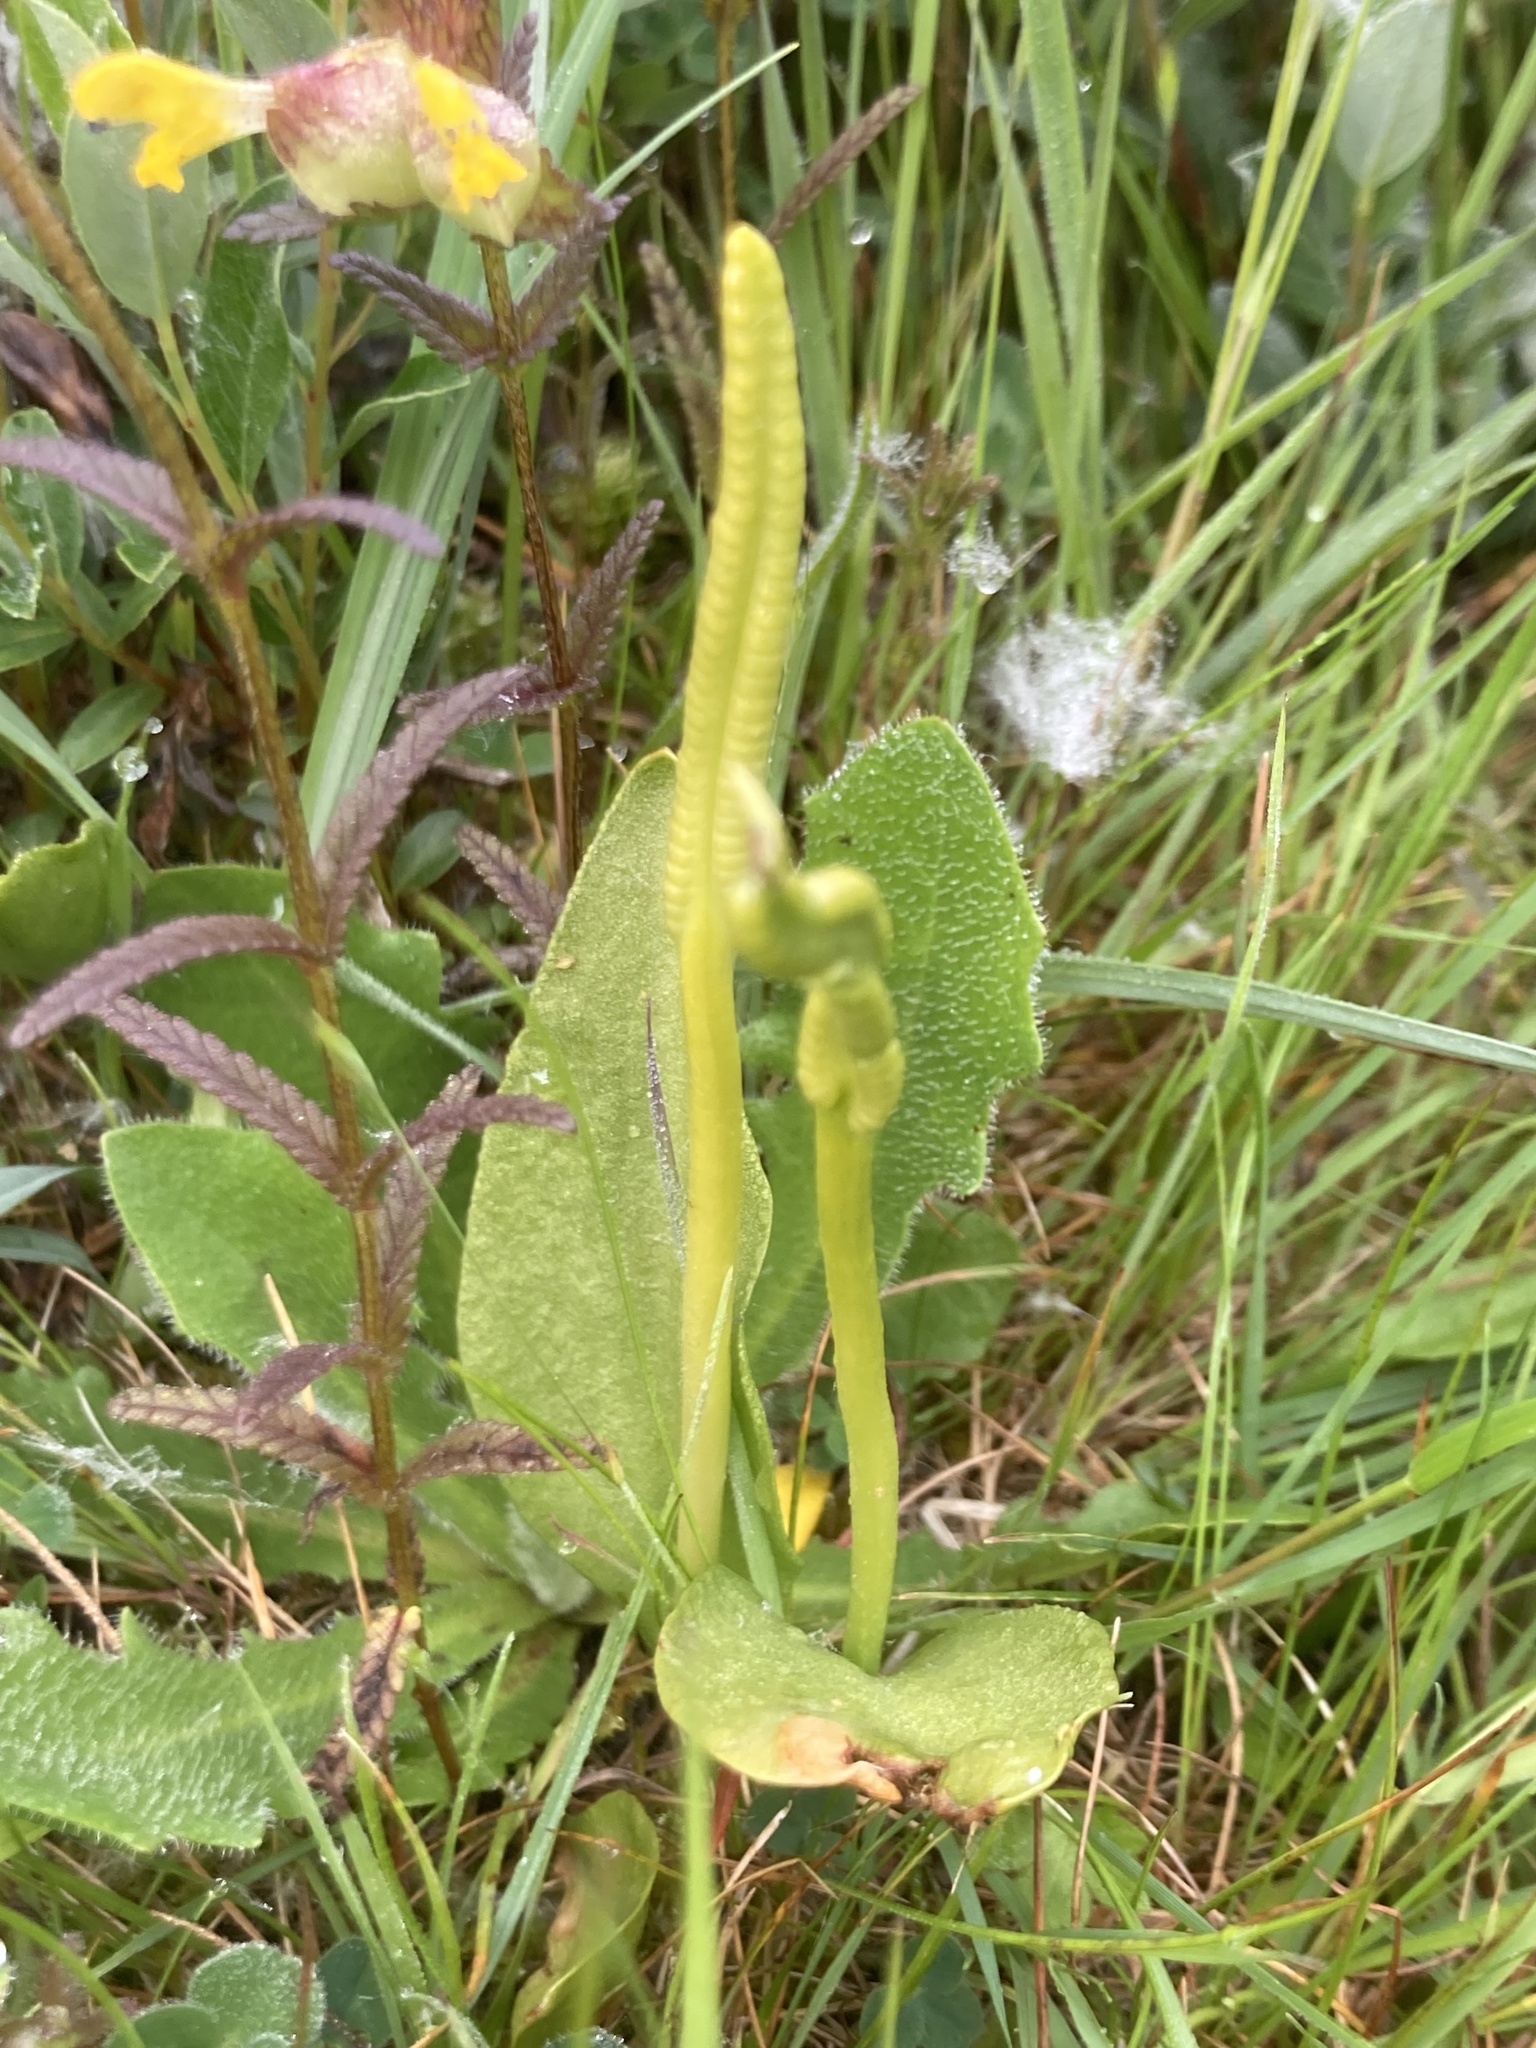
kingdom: Plantae
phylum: Tracheophyta
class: Polypodiopsida
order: Ophioglossales
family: Ophioglossaceae
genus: Ophioglossum
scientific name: Ophioglossum vulgatum
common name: Adder's-tongue
